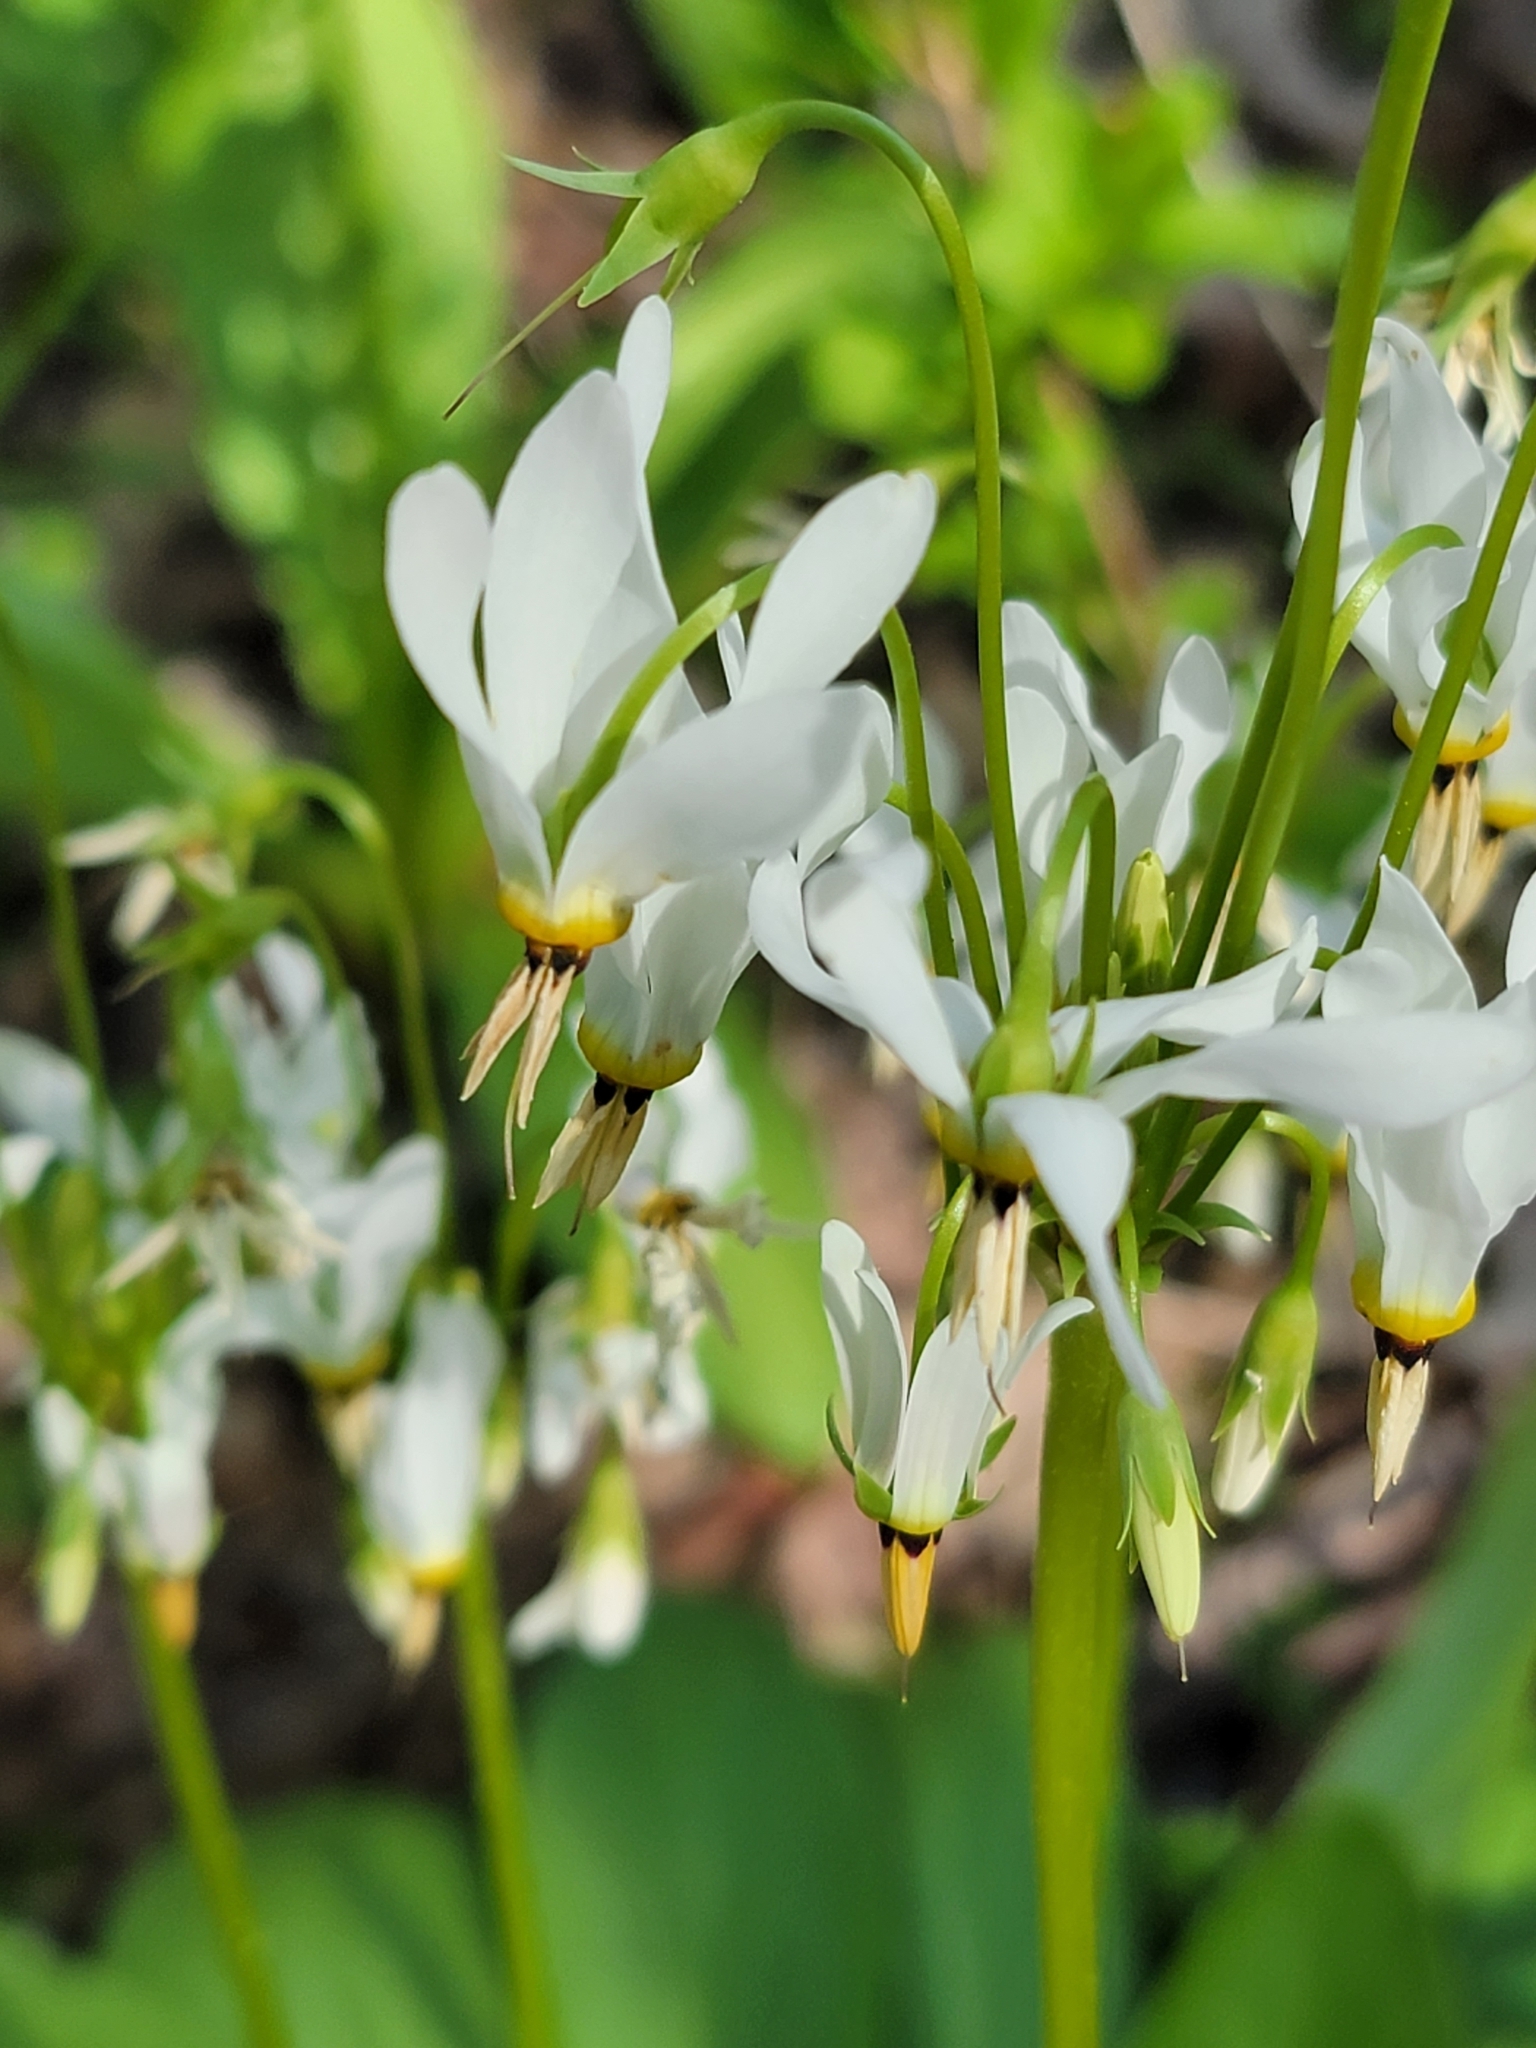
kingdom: Plantae
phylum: Tracheophyta
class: Magnoliopsida
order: Ericales
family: Primulaceae
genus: Dodecatheon
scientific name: Dodecatheon meadia
